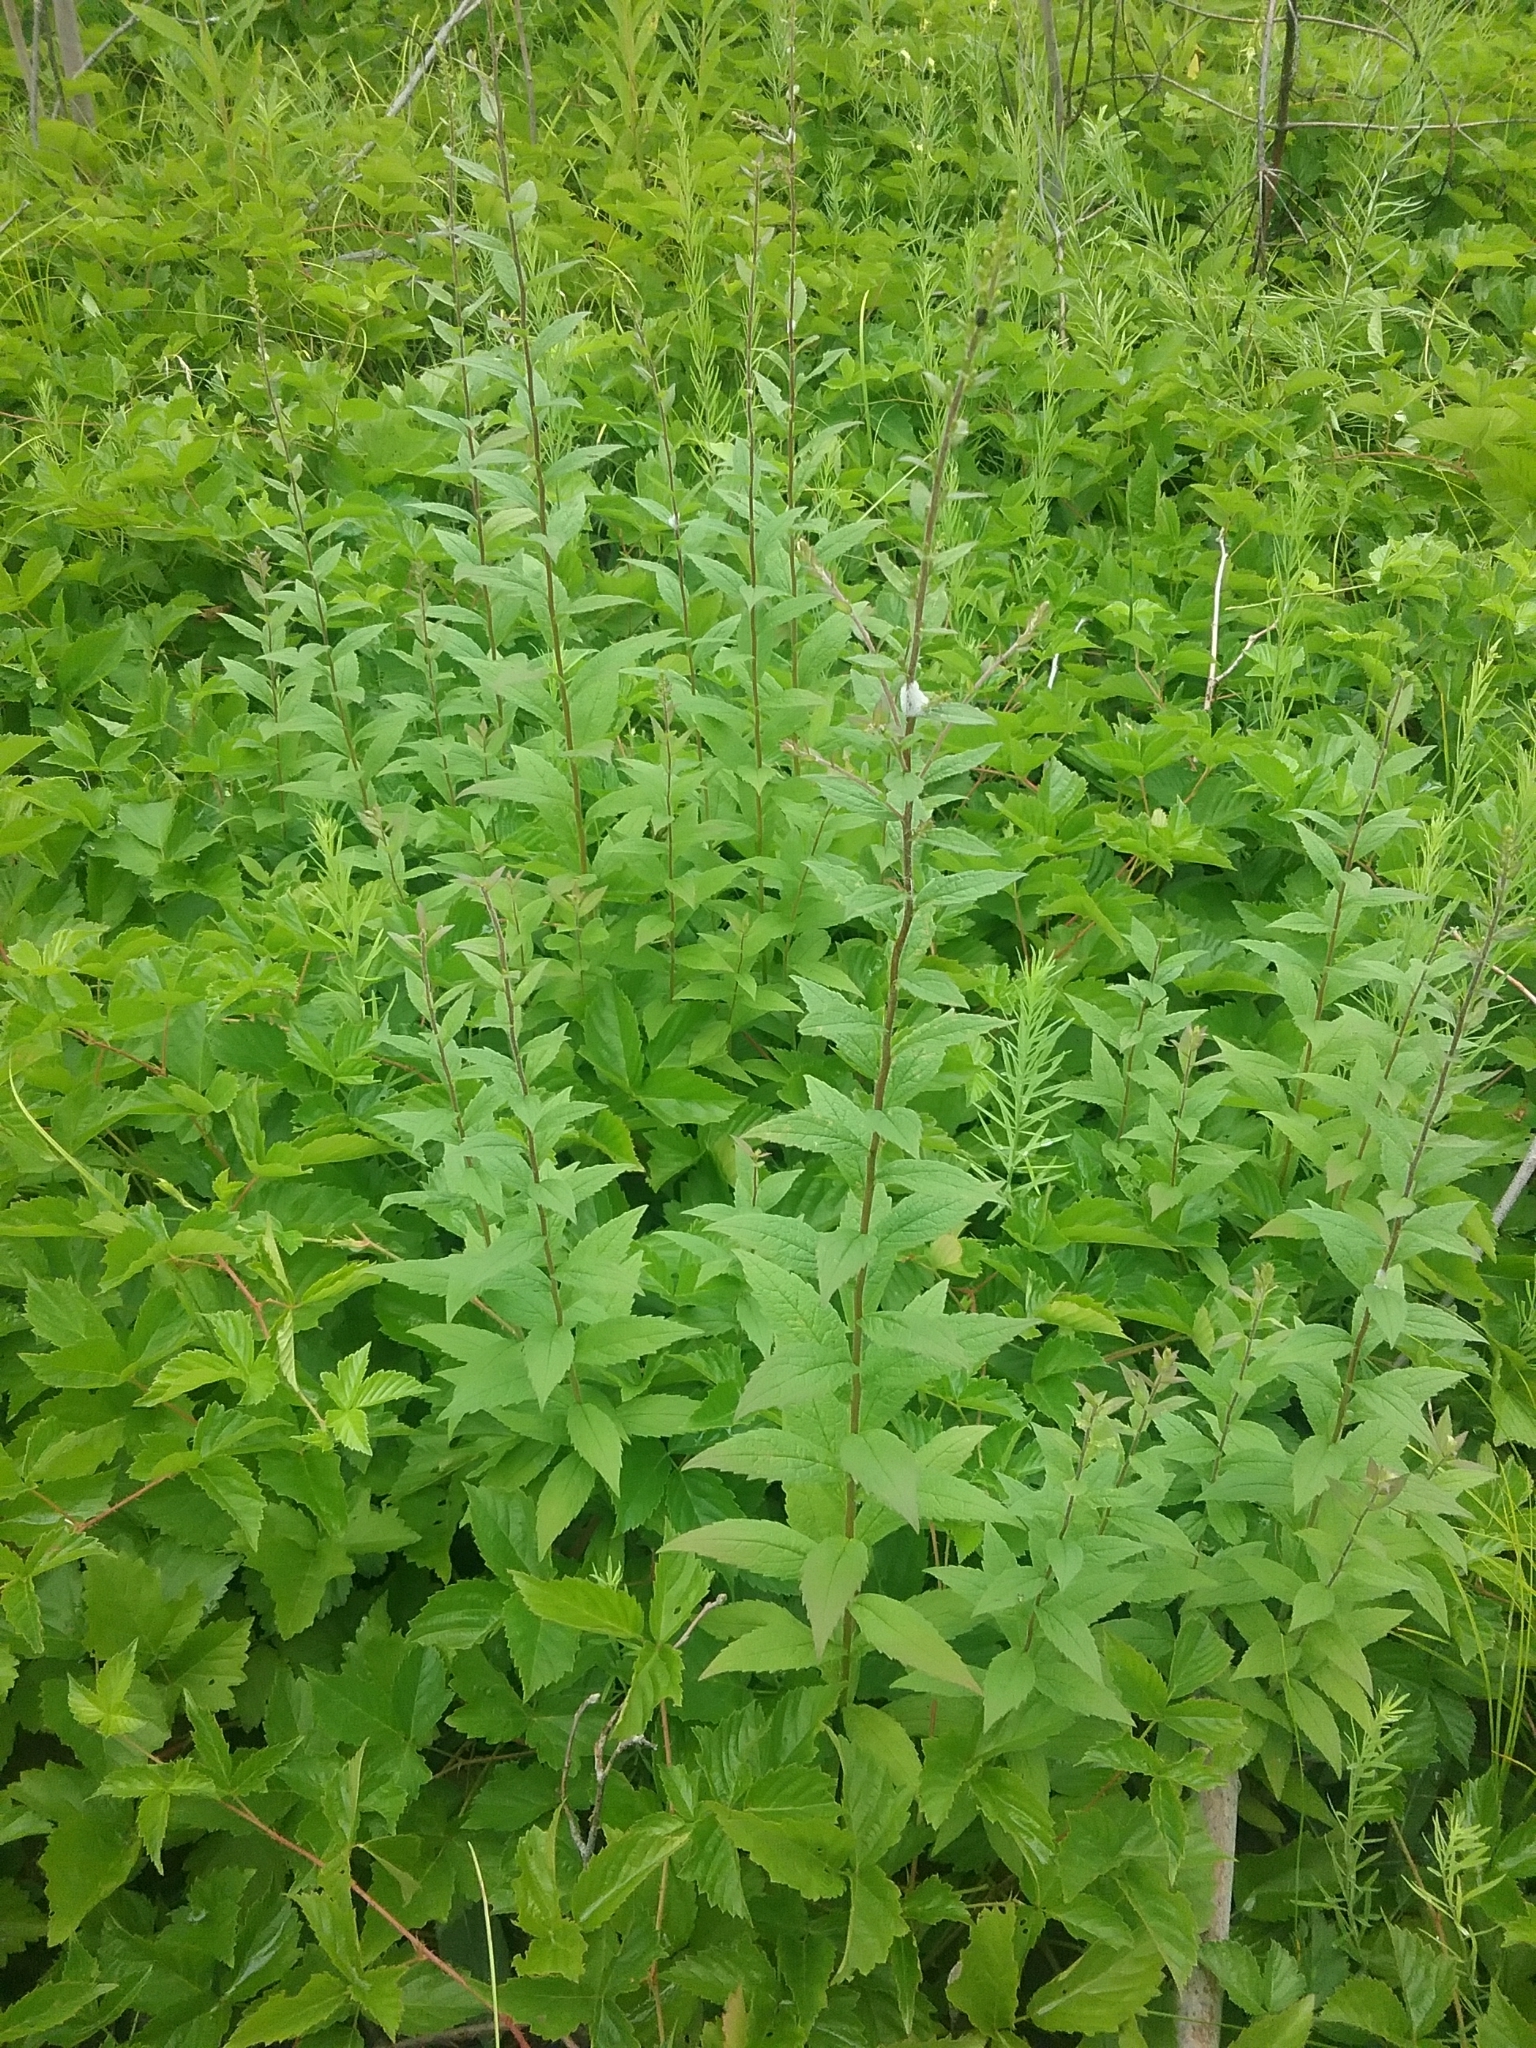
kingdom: Plantae
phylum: Tracheophyta
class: Magnoliopsida
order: Asterales
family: Asteraceae
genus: Solidago
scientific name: Solidago rugosa
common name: Rough-stemmed goldenrod
